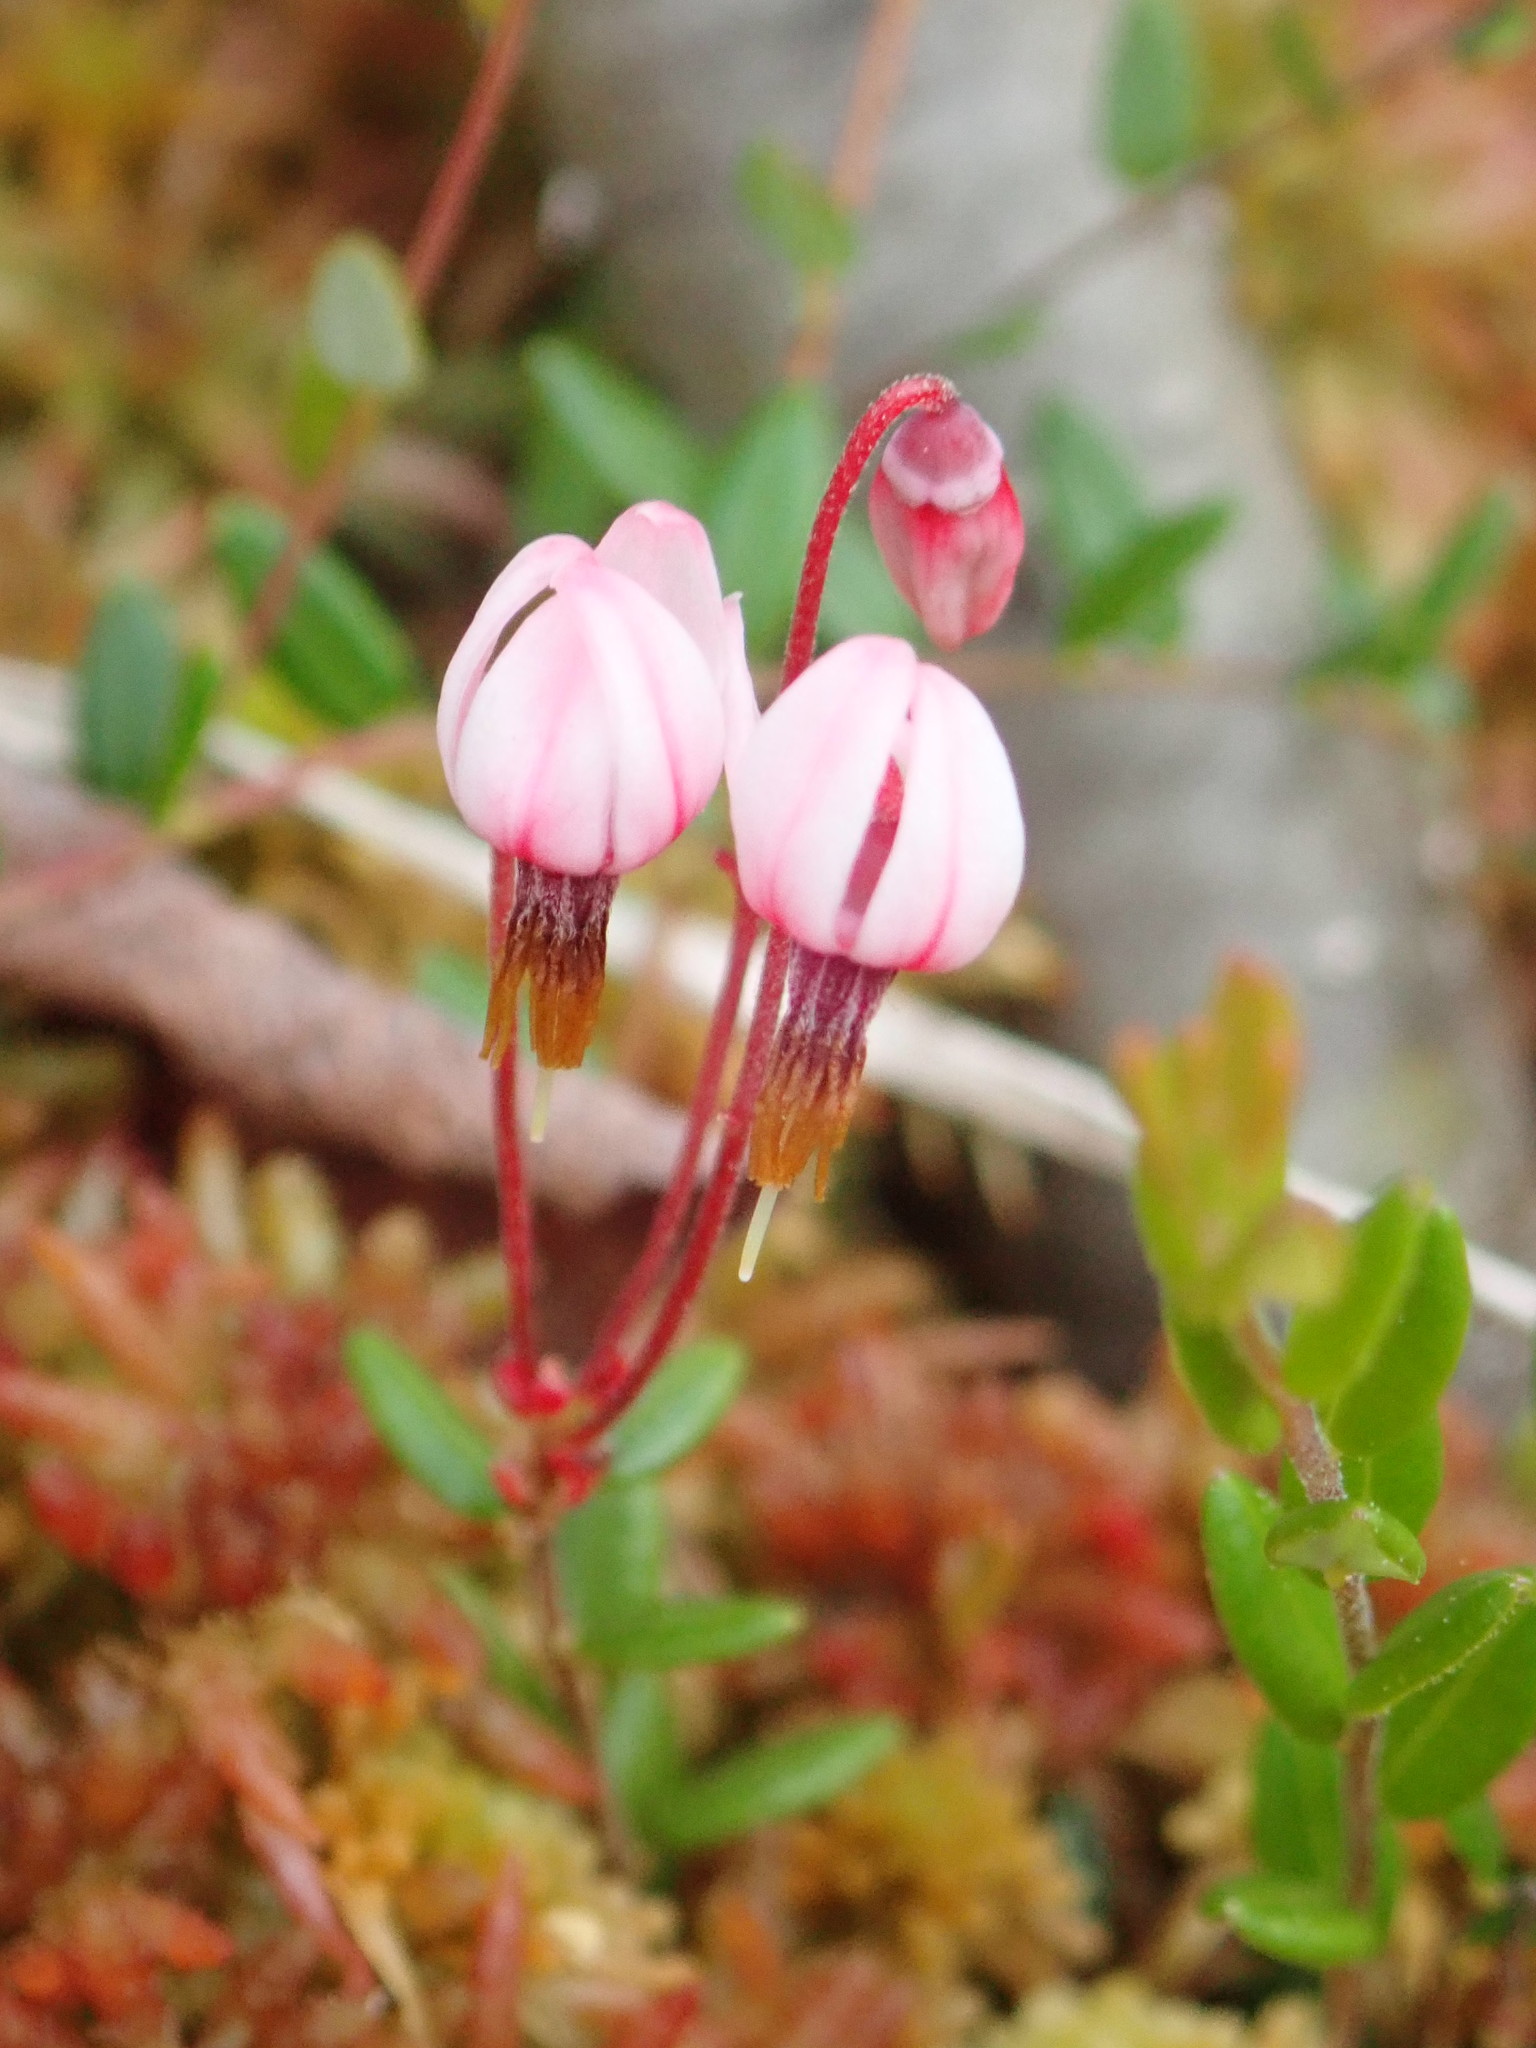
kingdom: Plantae
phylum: Tracheophyta
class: Magnoliopsida
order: Ericales
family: Ericaceae
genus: Vaccinium
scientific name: Vaccinium oxycoccos
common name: Cranberry
